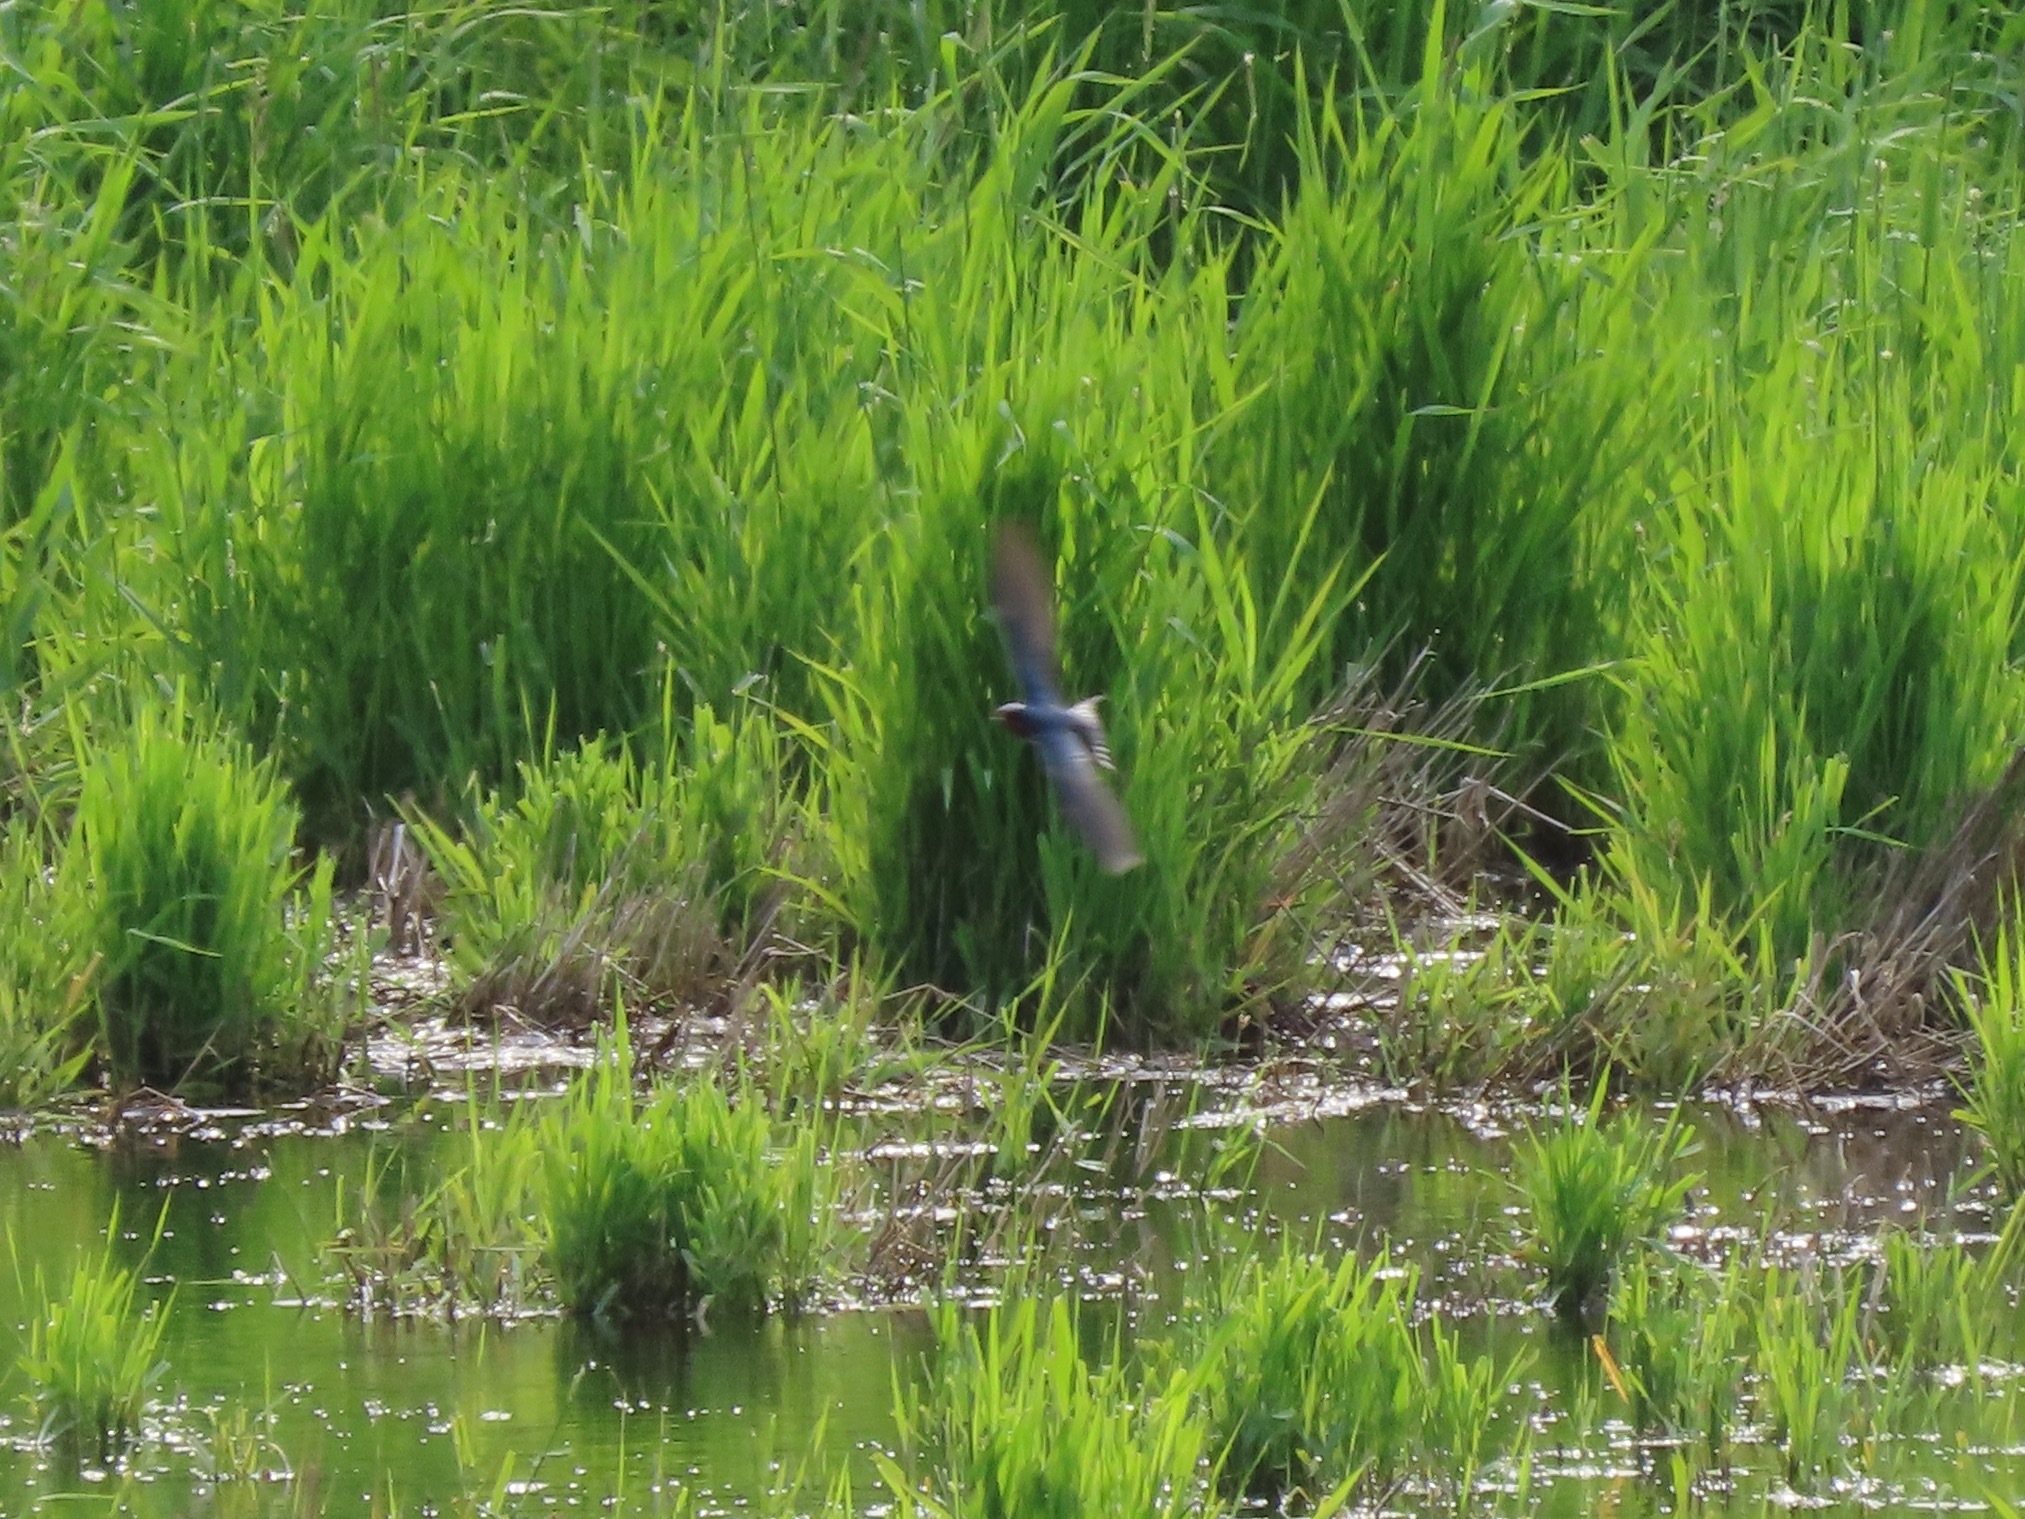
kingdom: Animalia
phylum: Chordata
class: Aves
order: Passeriformes
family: Hirundinidae
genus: Hirundo
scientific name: Hirundo rustica
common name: Barn swallow
